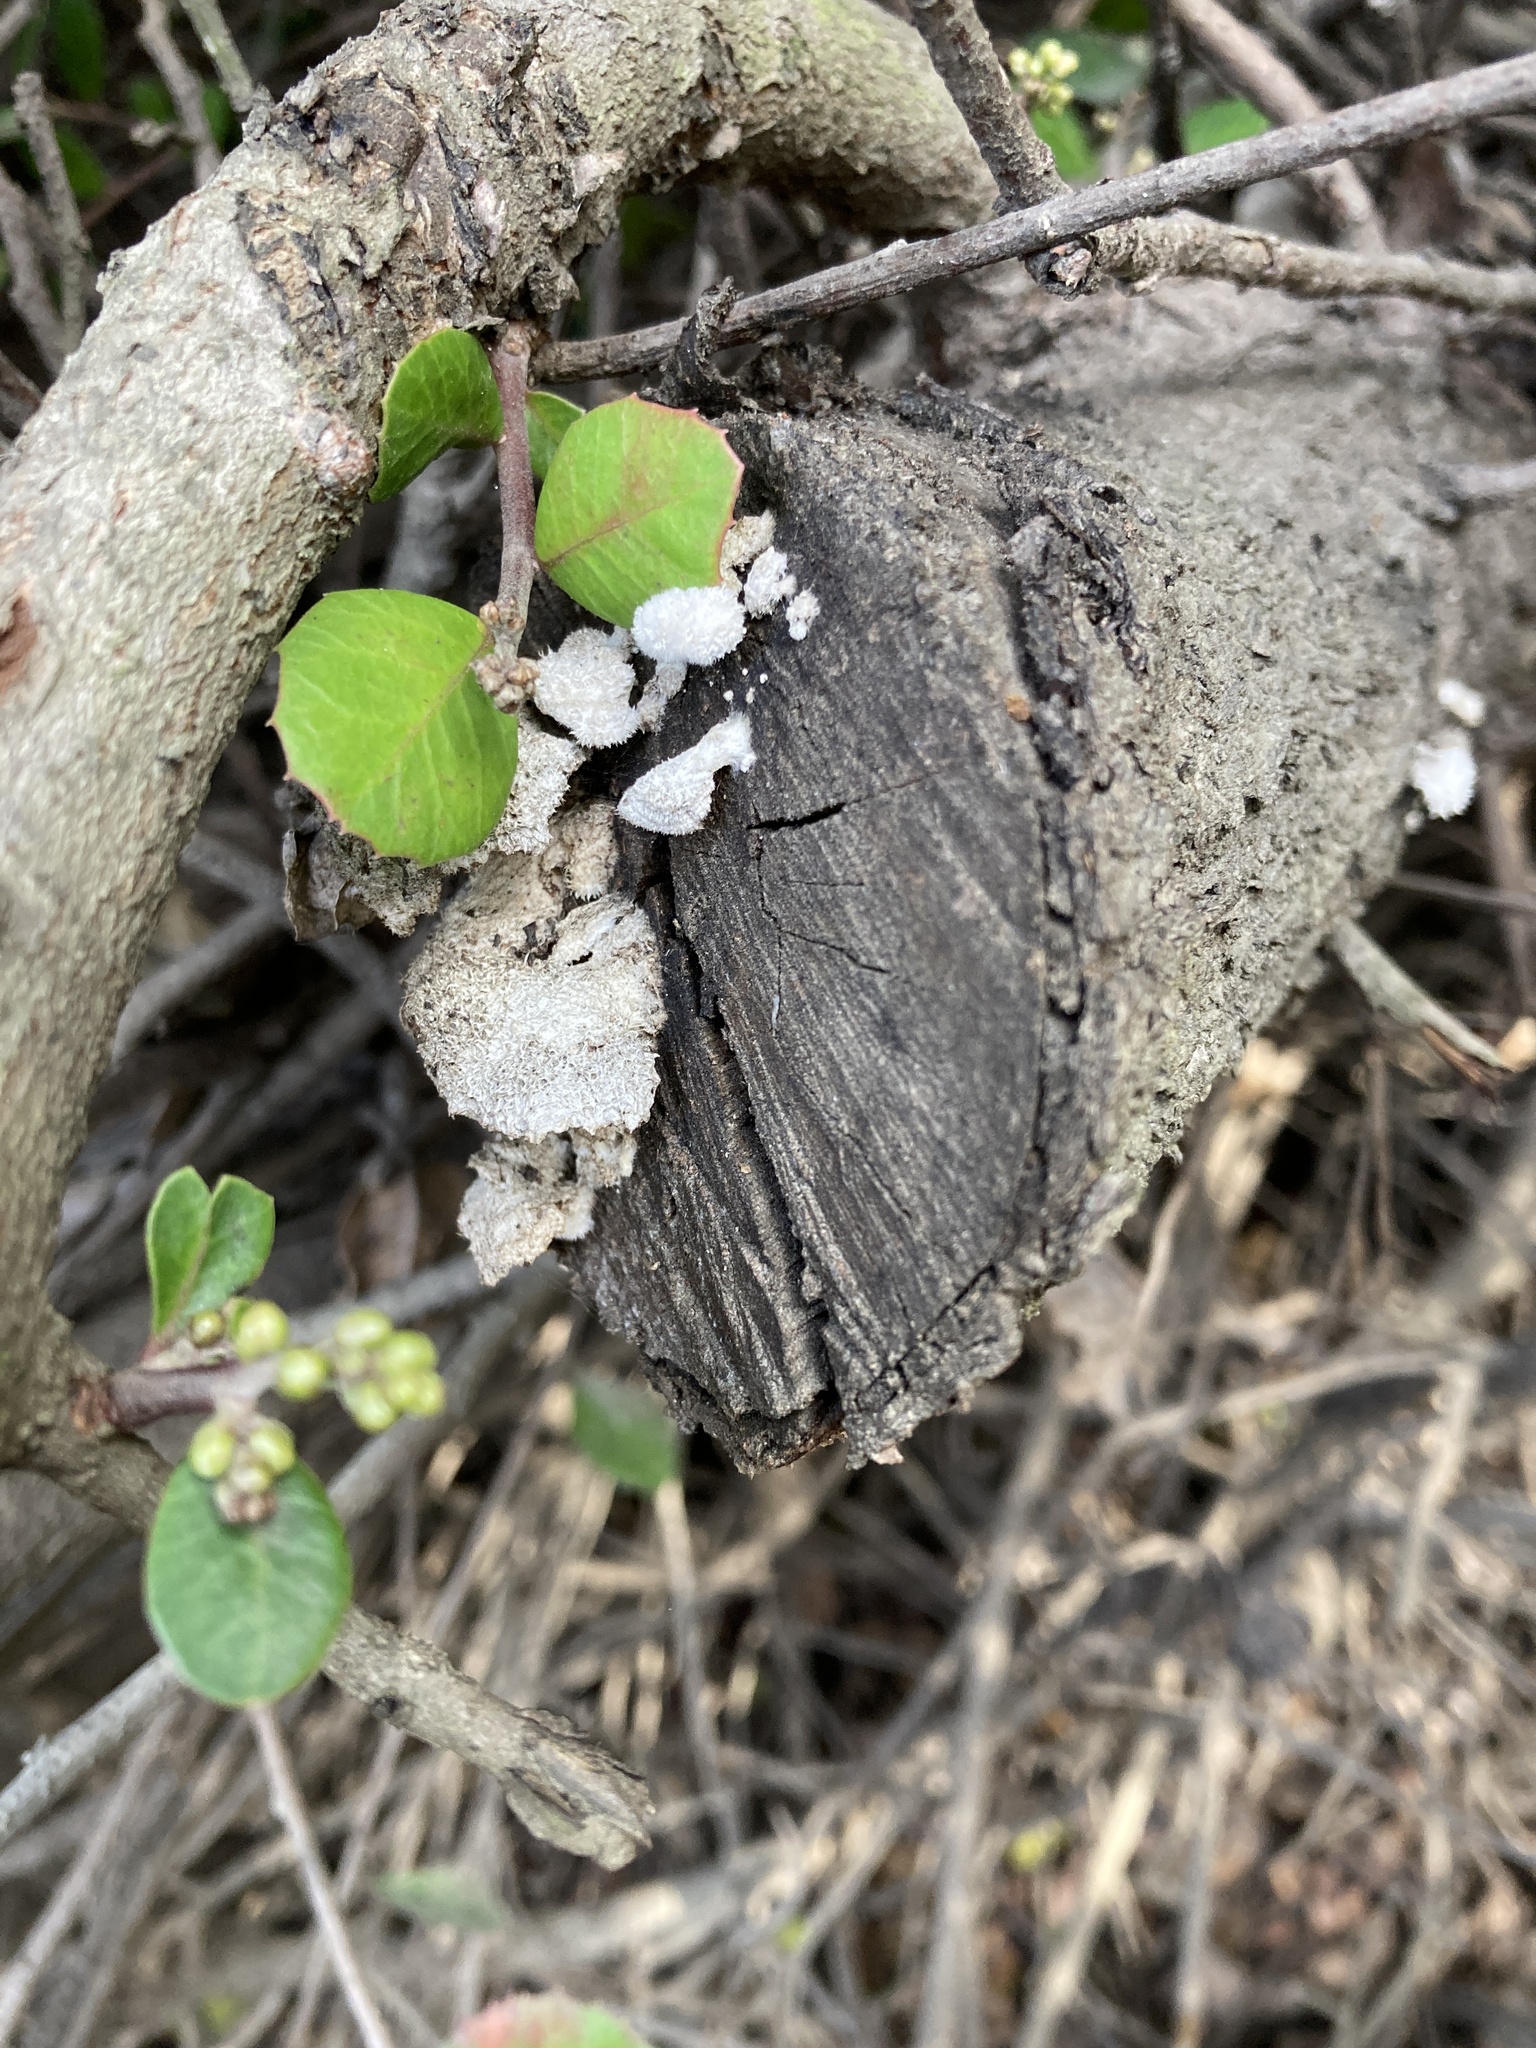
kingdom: Fungi
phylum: Basidiomycota
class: Agaricomycetes
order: Agaricales
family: Schizophyllaceae
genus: Schizophyllum
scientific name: Schizophyllum commune
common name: Common porecrust
